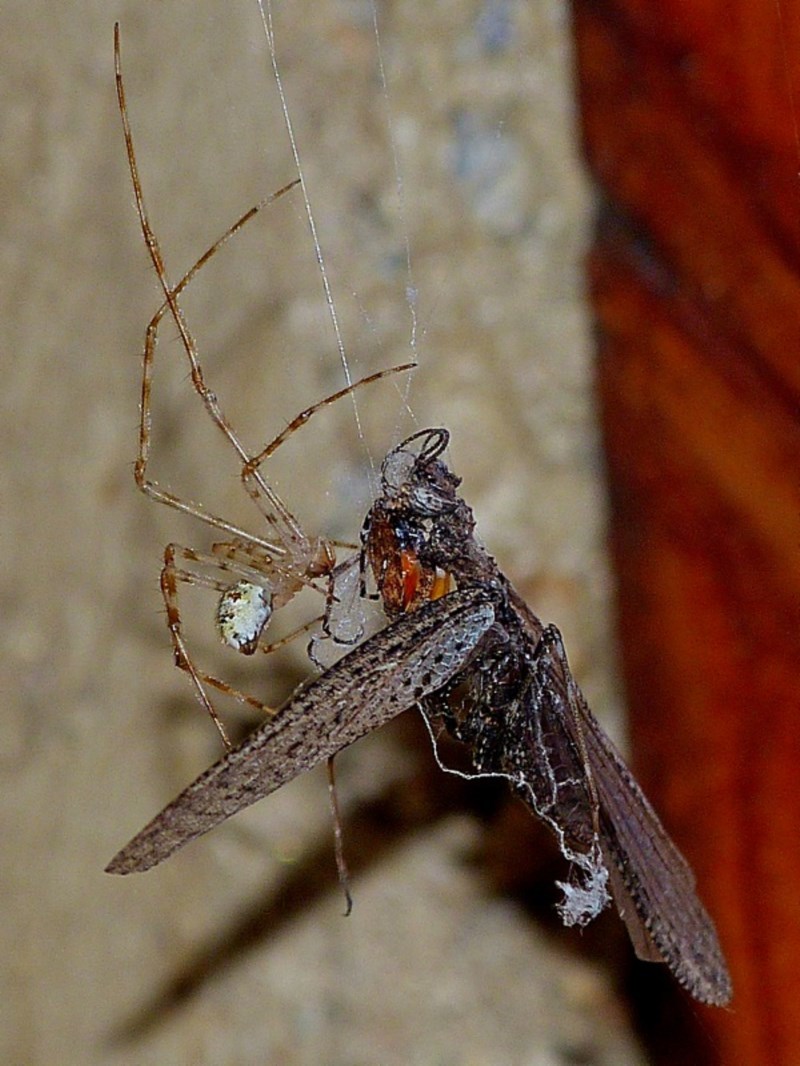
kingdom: Animalia
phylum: Arthropoda
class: Arachnida
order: Araneae
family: Theridiidae
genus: Cryptachaea
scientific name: Cryptachaea gigantipes
